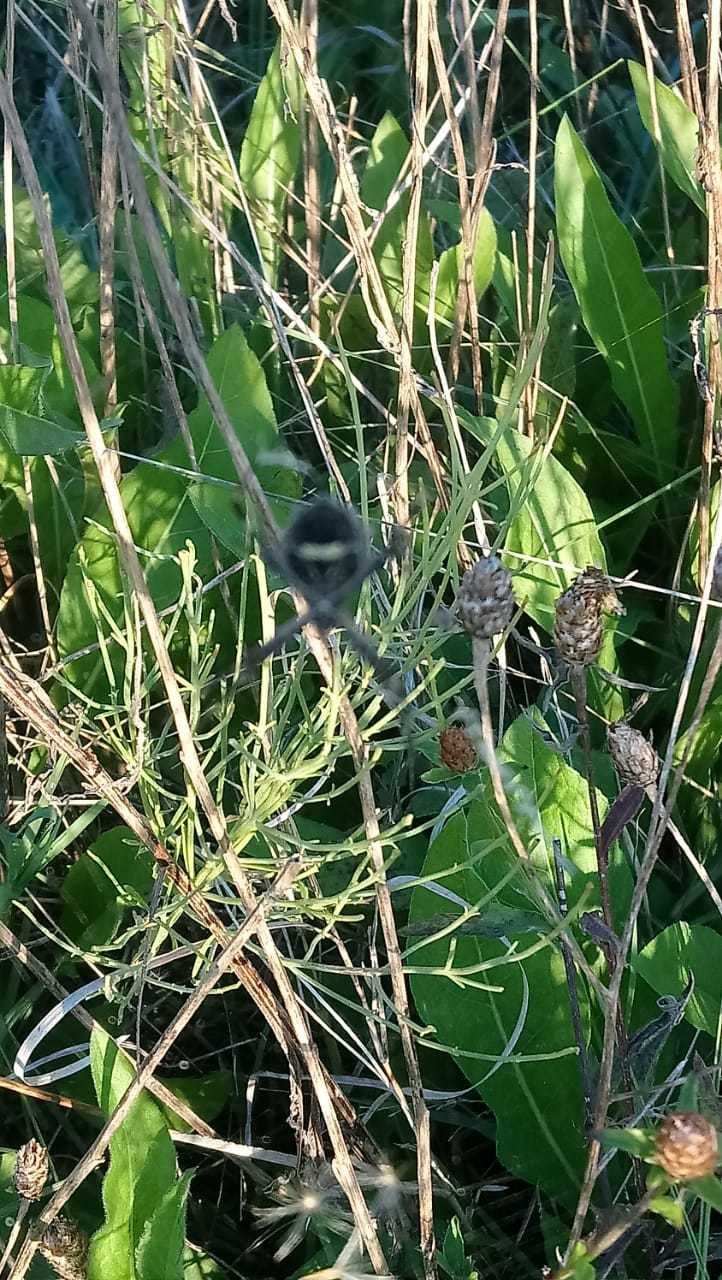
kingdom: Animalia
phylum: Arthropoda
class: Arachnida
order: Araneae
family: Araneidae
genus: Argiope
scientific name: Argiope argentata
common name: Orb weavers
